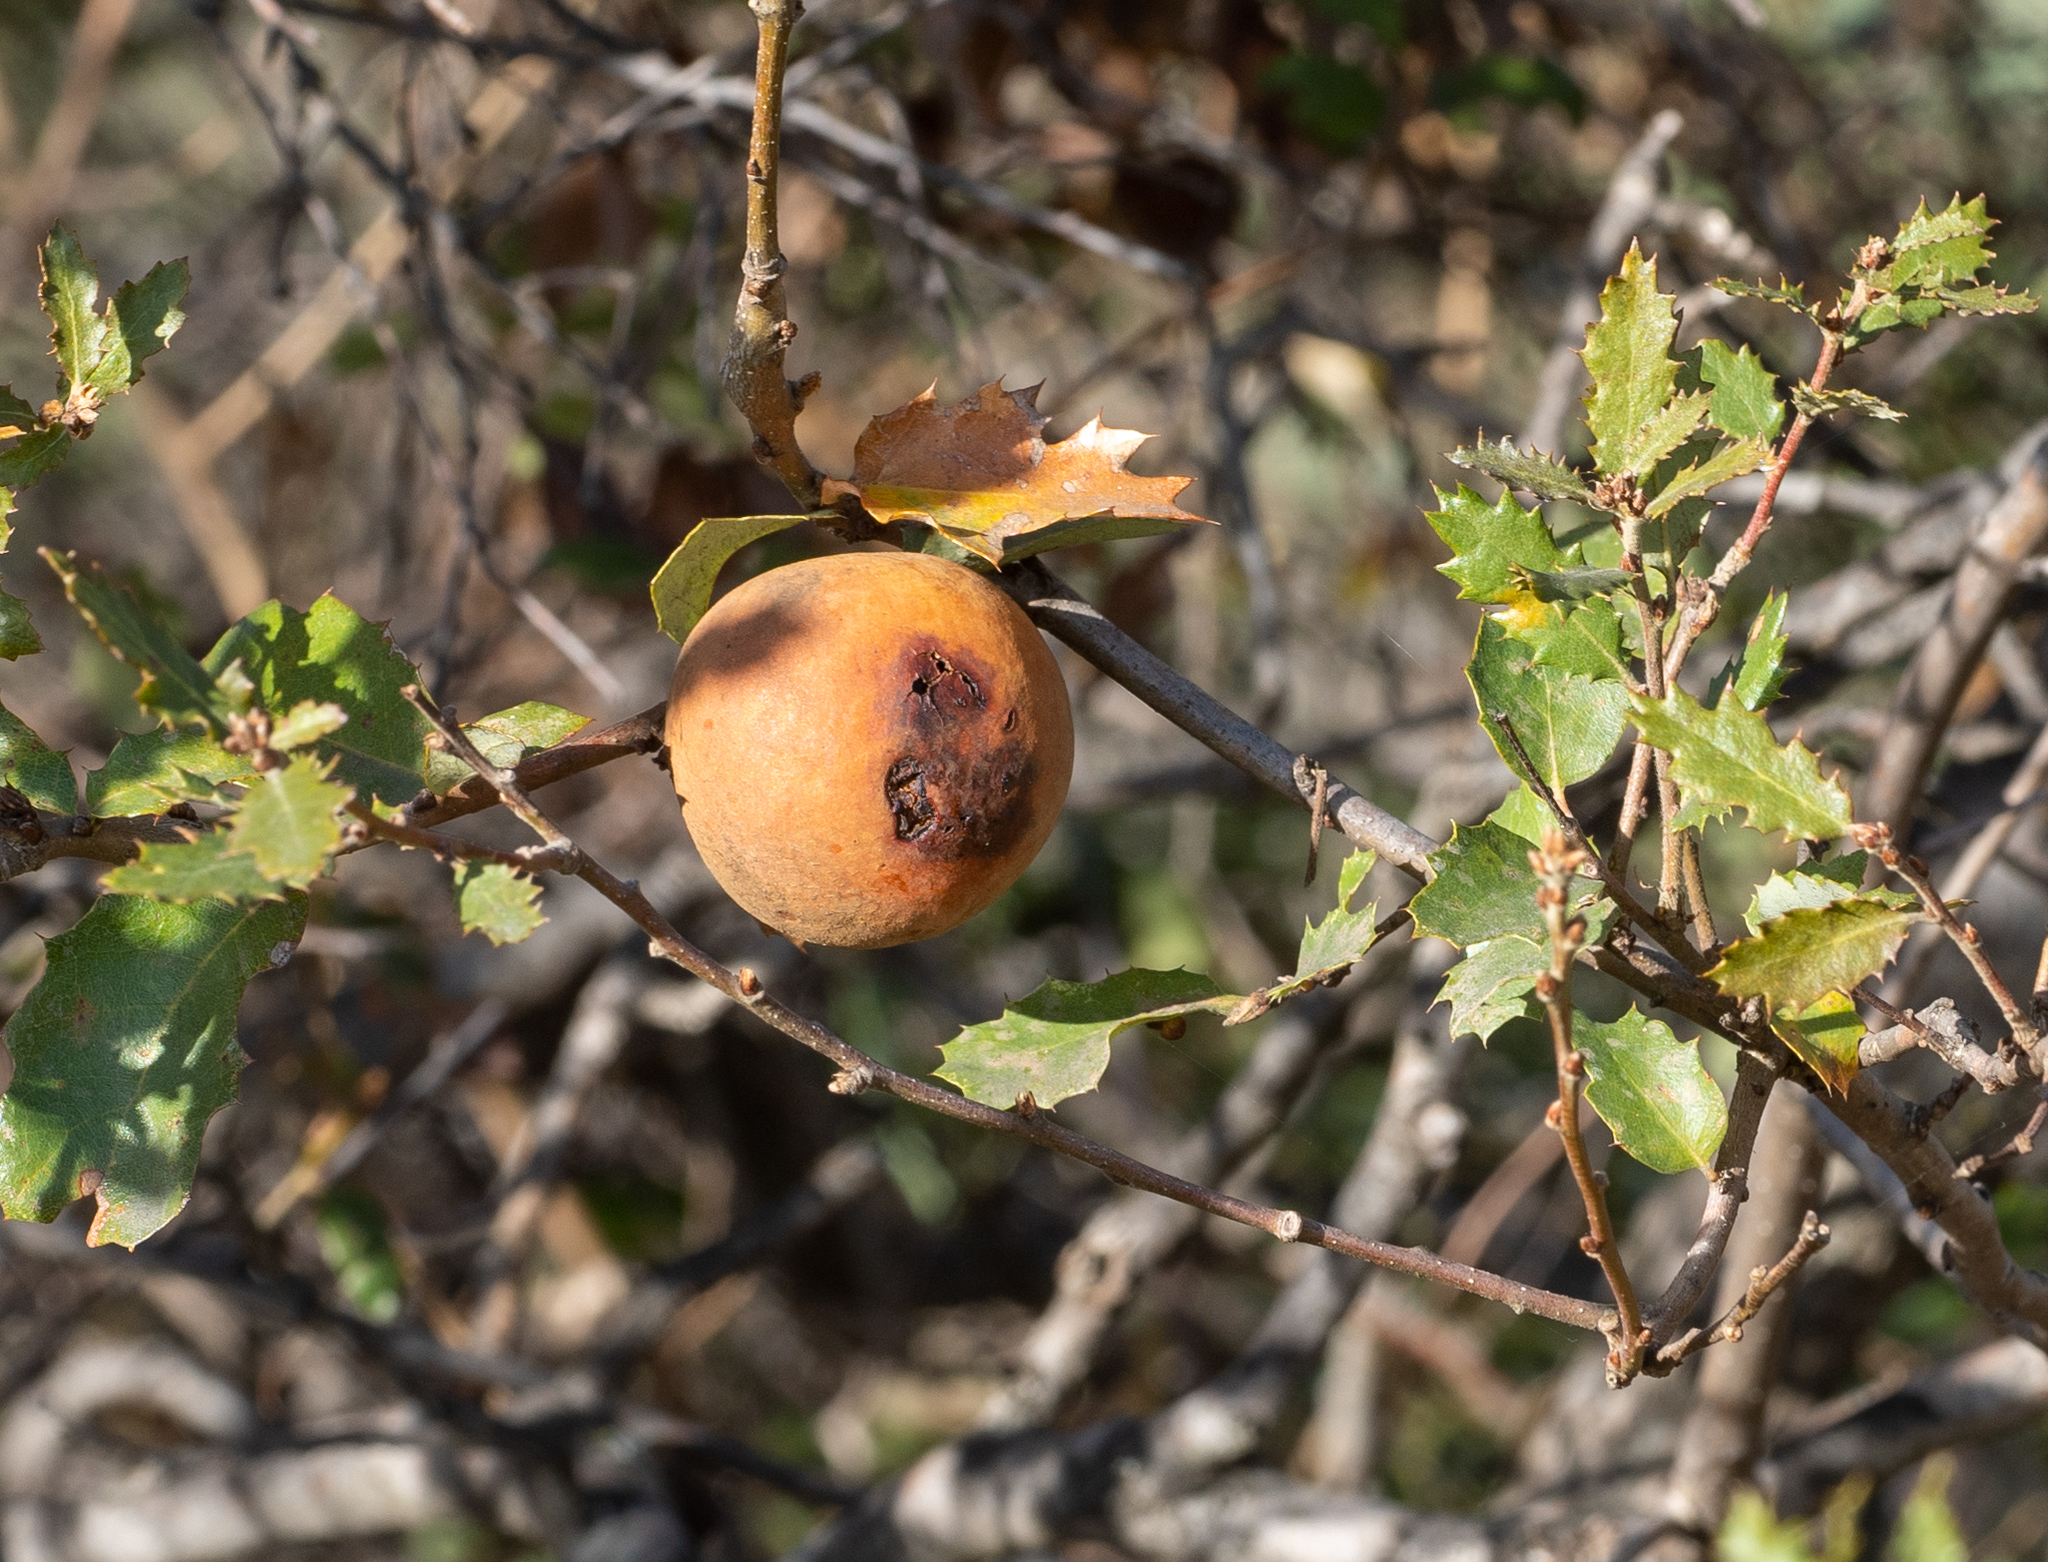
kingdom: Animalia
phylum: Arthropoda
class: Insecta
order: Hymenoptera
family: Cynipidae
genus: Andricus
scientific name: Andricus quercuscalifornicus
